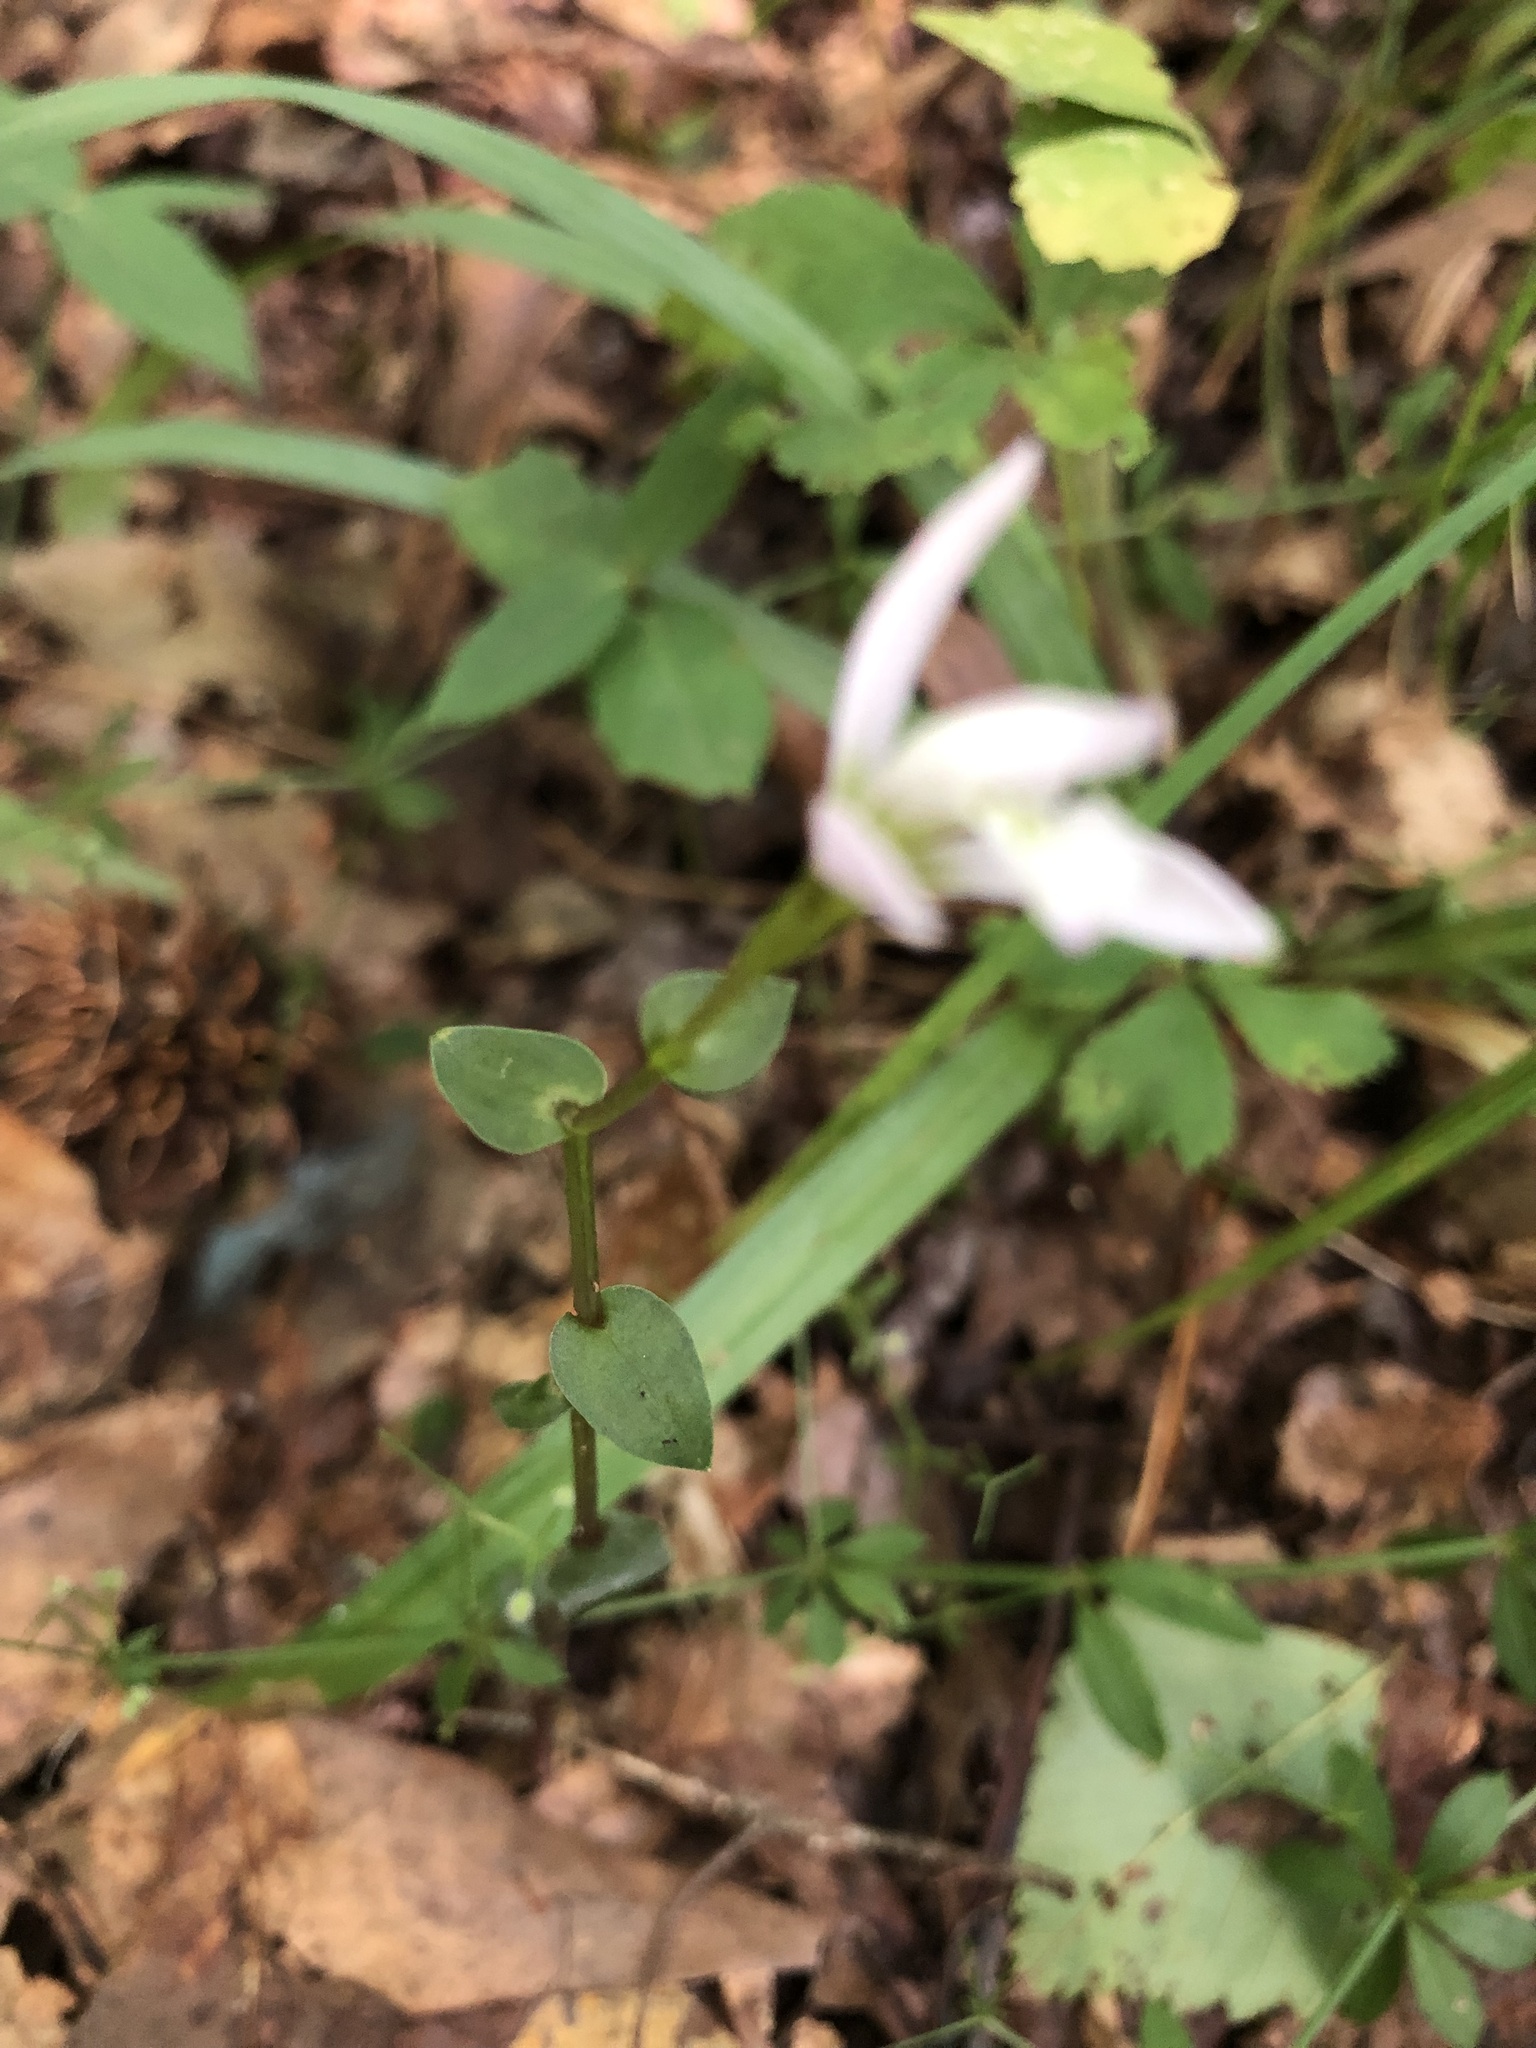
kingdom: Plantae
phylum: Tracheophyta
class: Liliopsida
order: Asparagales
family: Orchidaceae
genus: Triphora
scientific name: Triphora trianthophoros
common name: Three birds orchid
